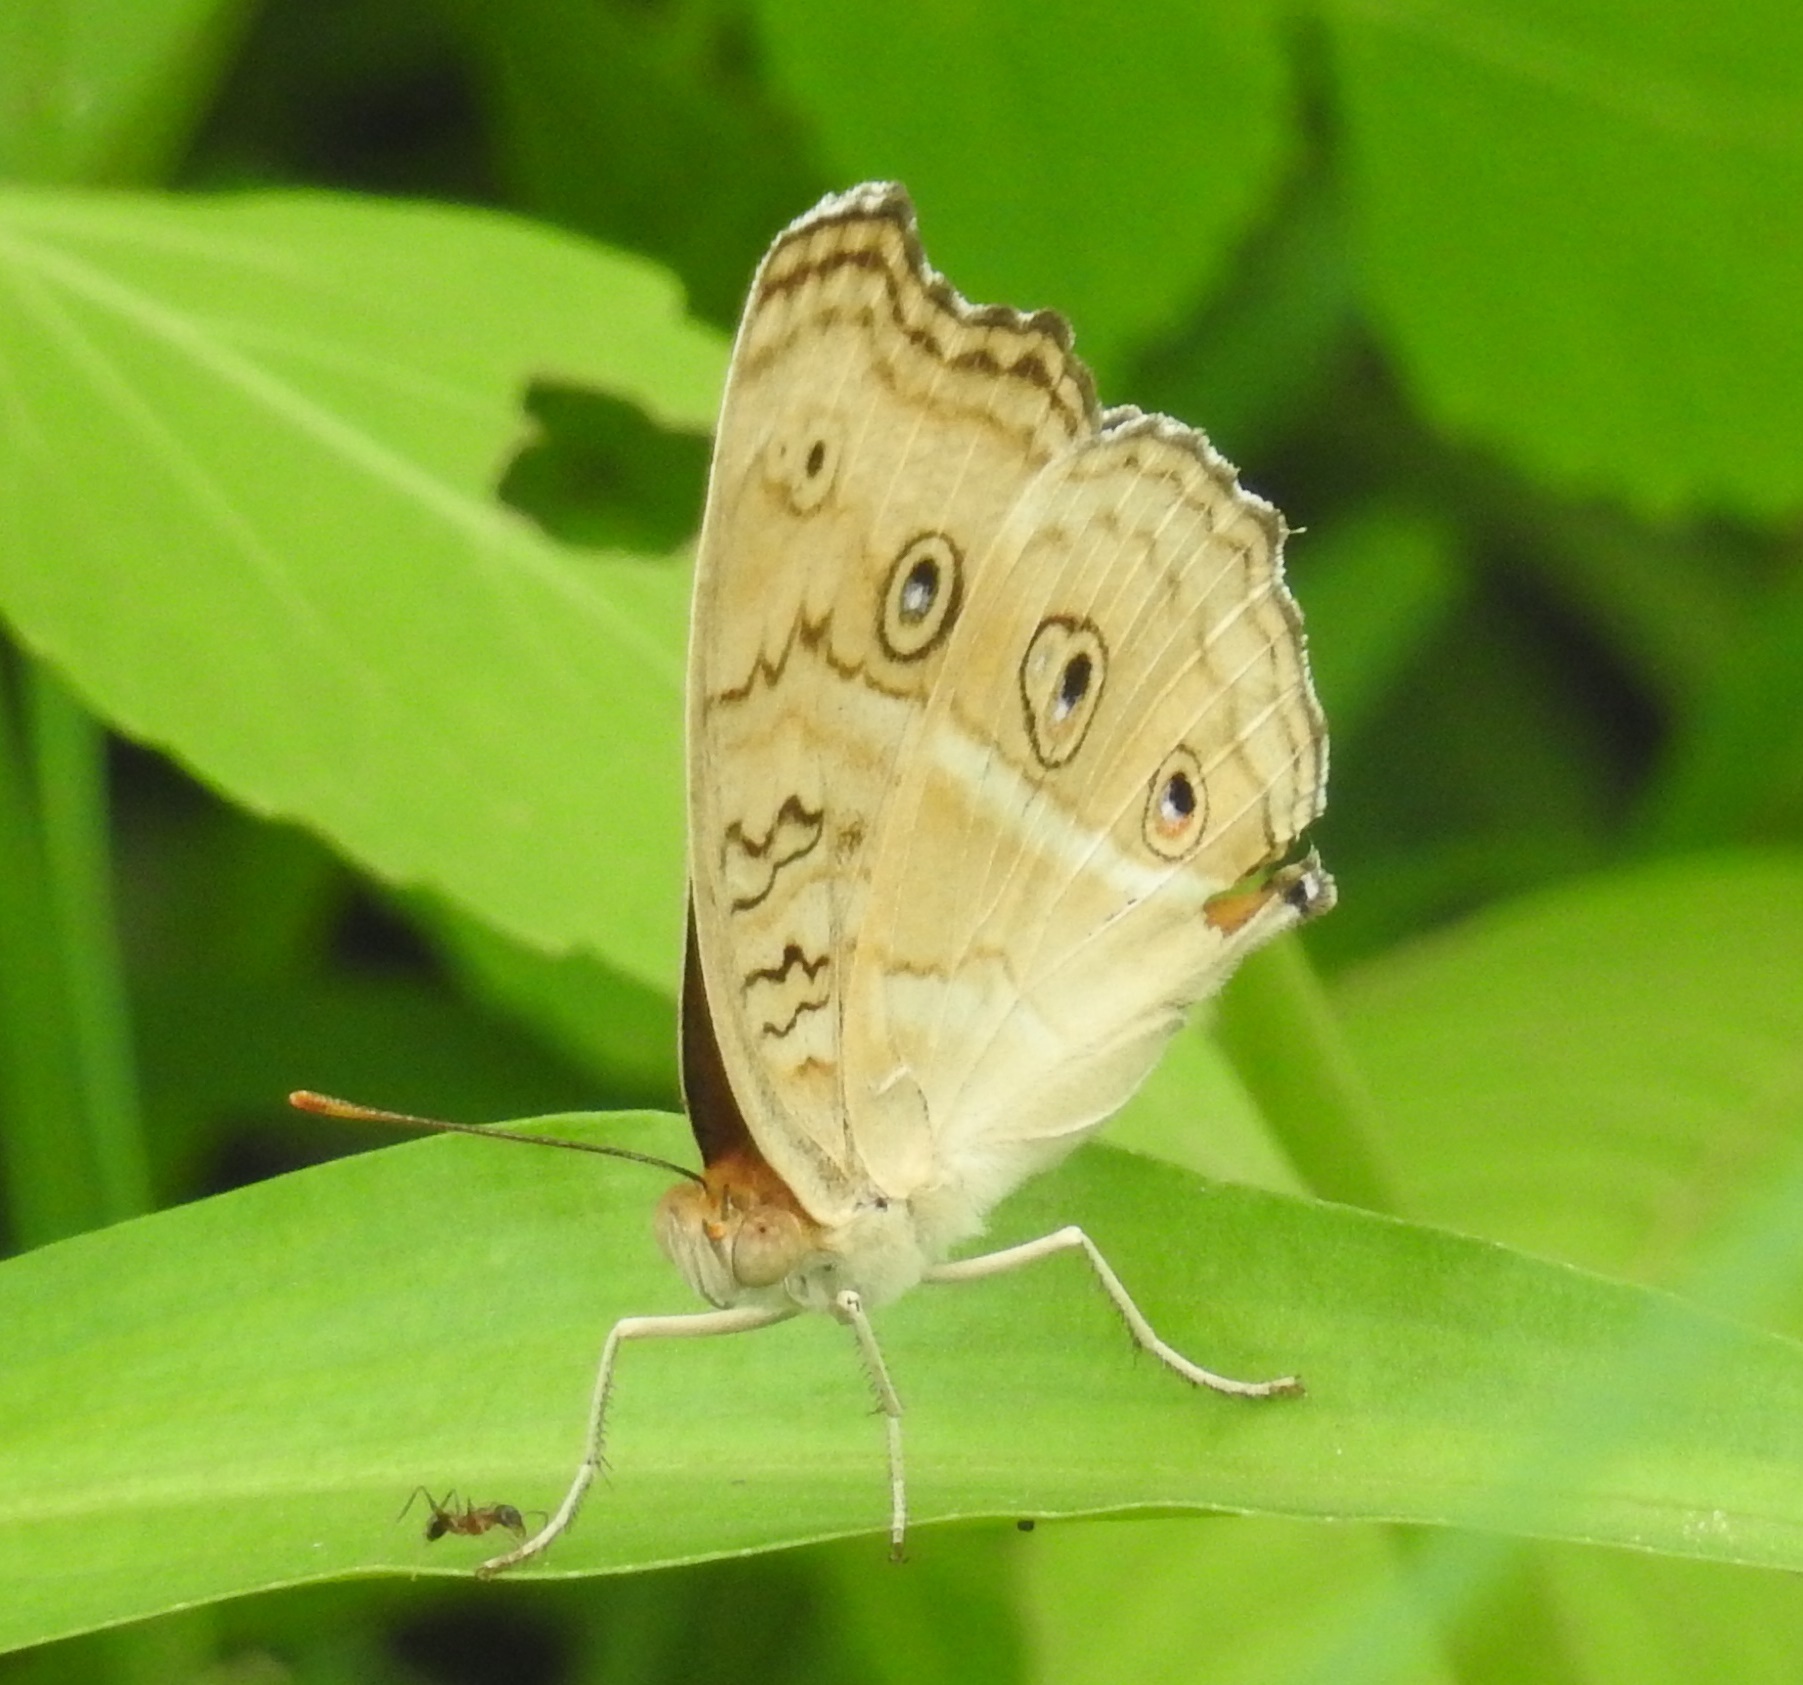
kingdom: Animalia
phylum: Arthropoda
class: Insecta
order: Lepidoptera
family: Nymphalidae
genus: Junonia
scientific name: Junonia almana
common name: Peacock pansy
